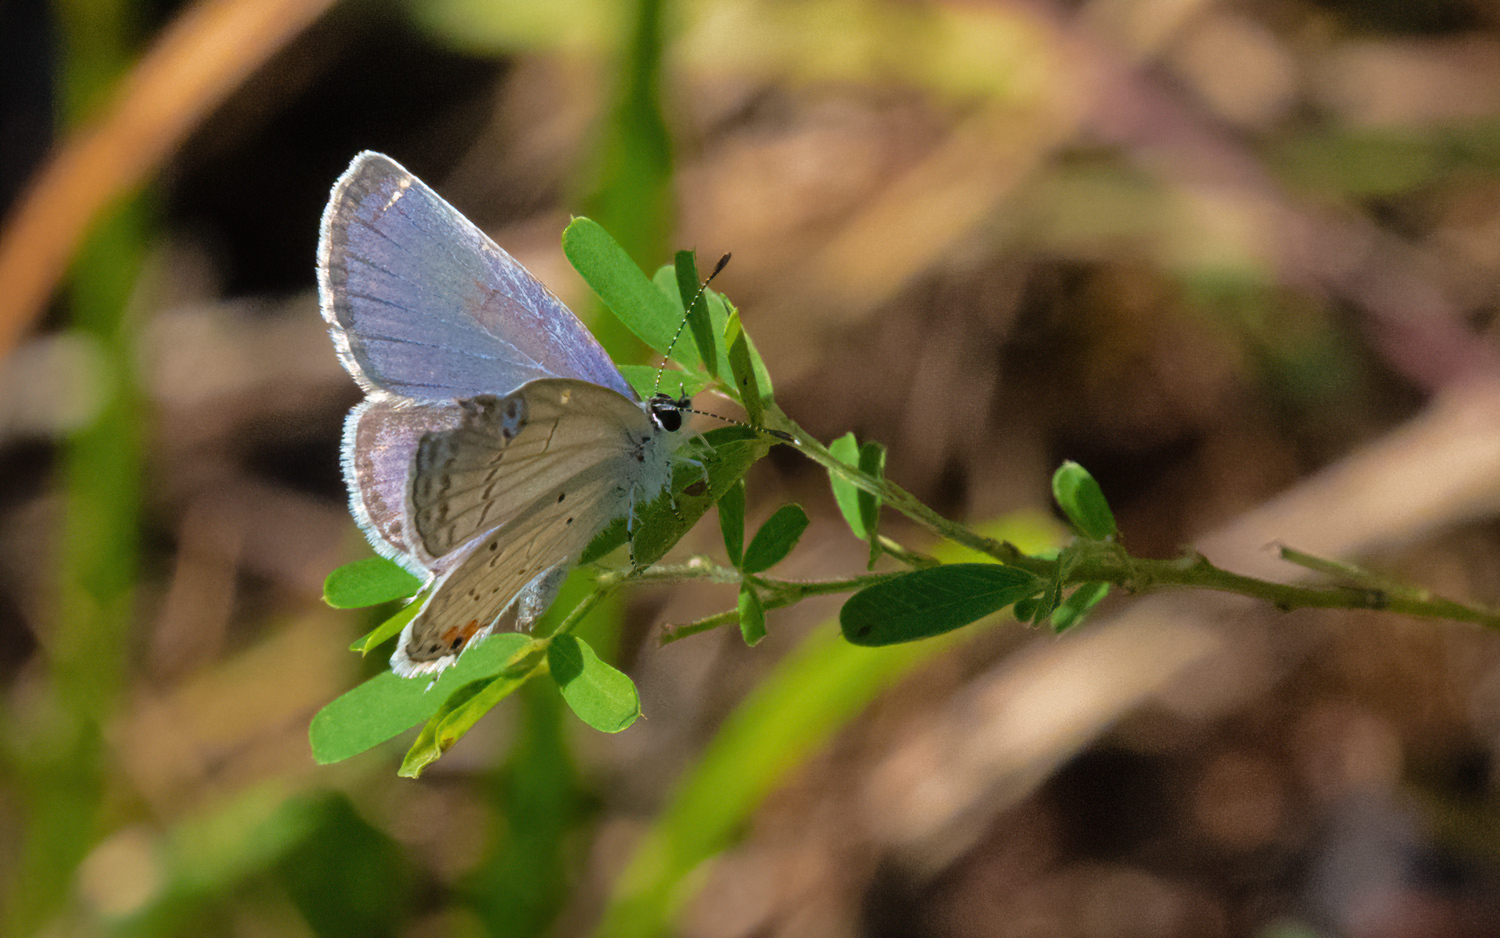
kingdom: Animalia
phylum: Arthropoda
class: Insecta
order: Lepidoptera
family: Lycaenidae
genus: Elkalyce
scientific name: Elkalyce comyntas
